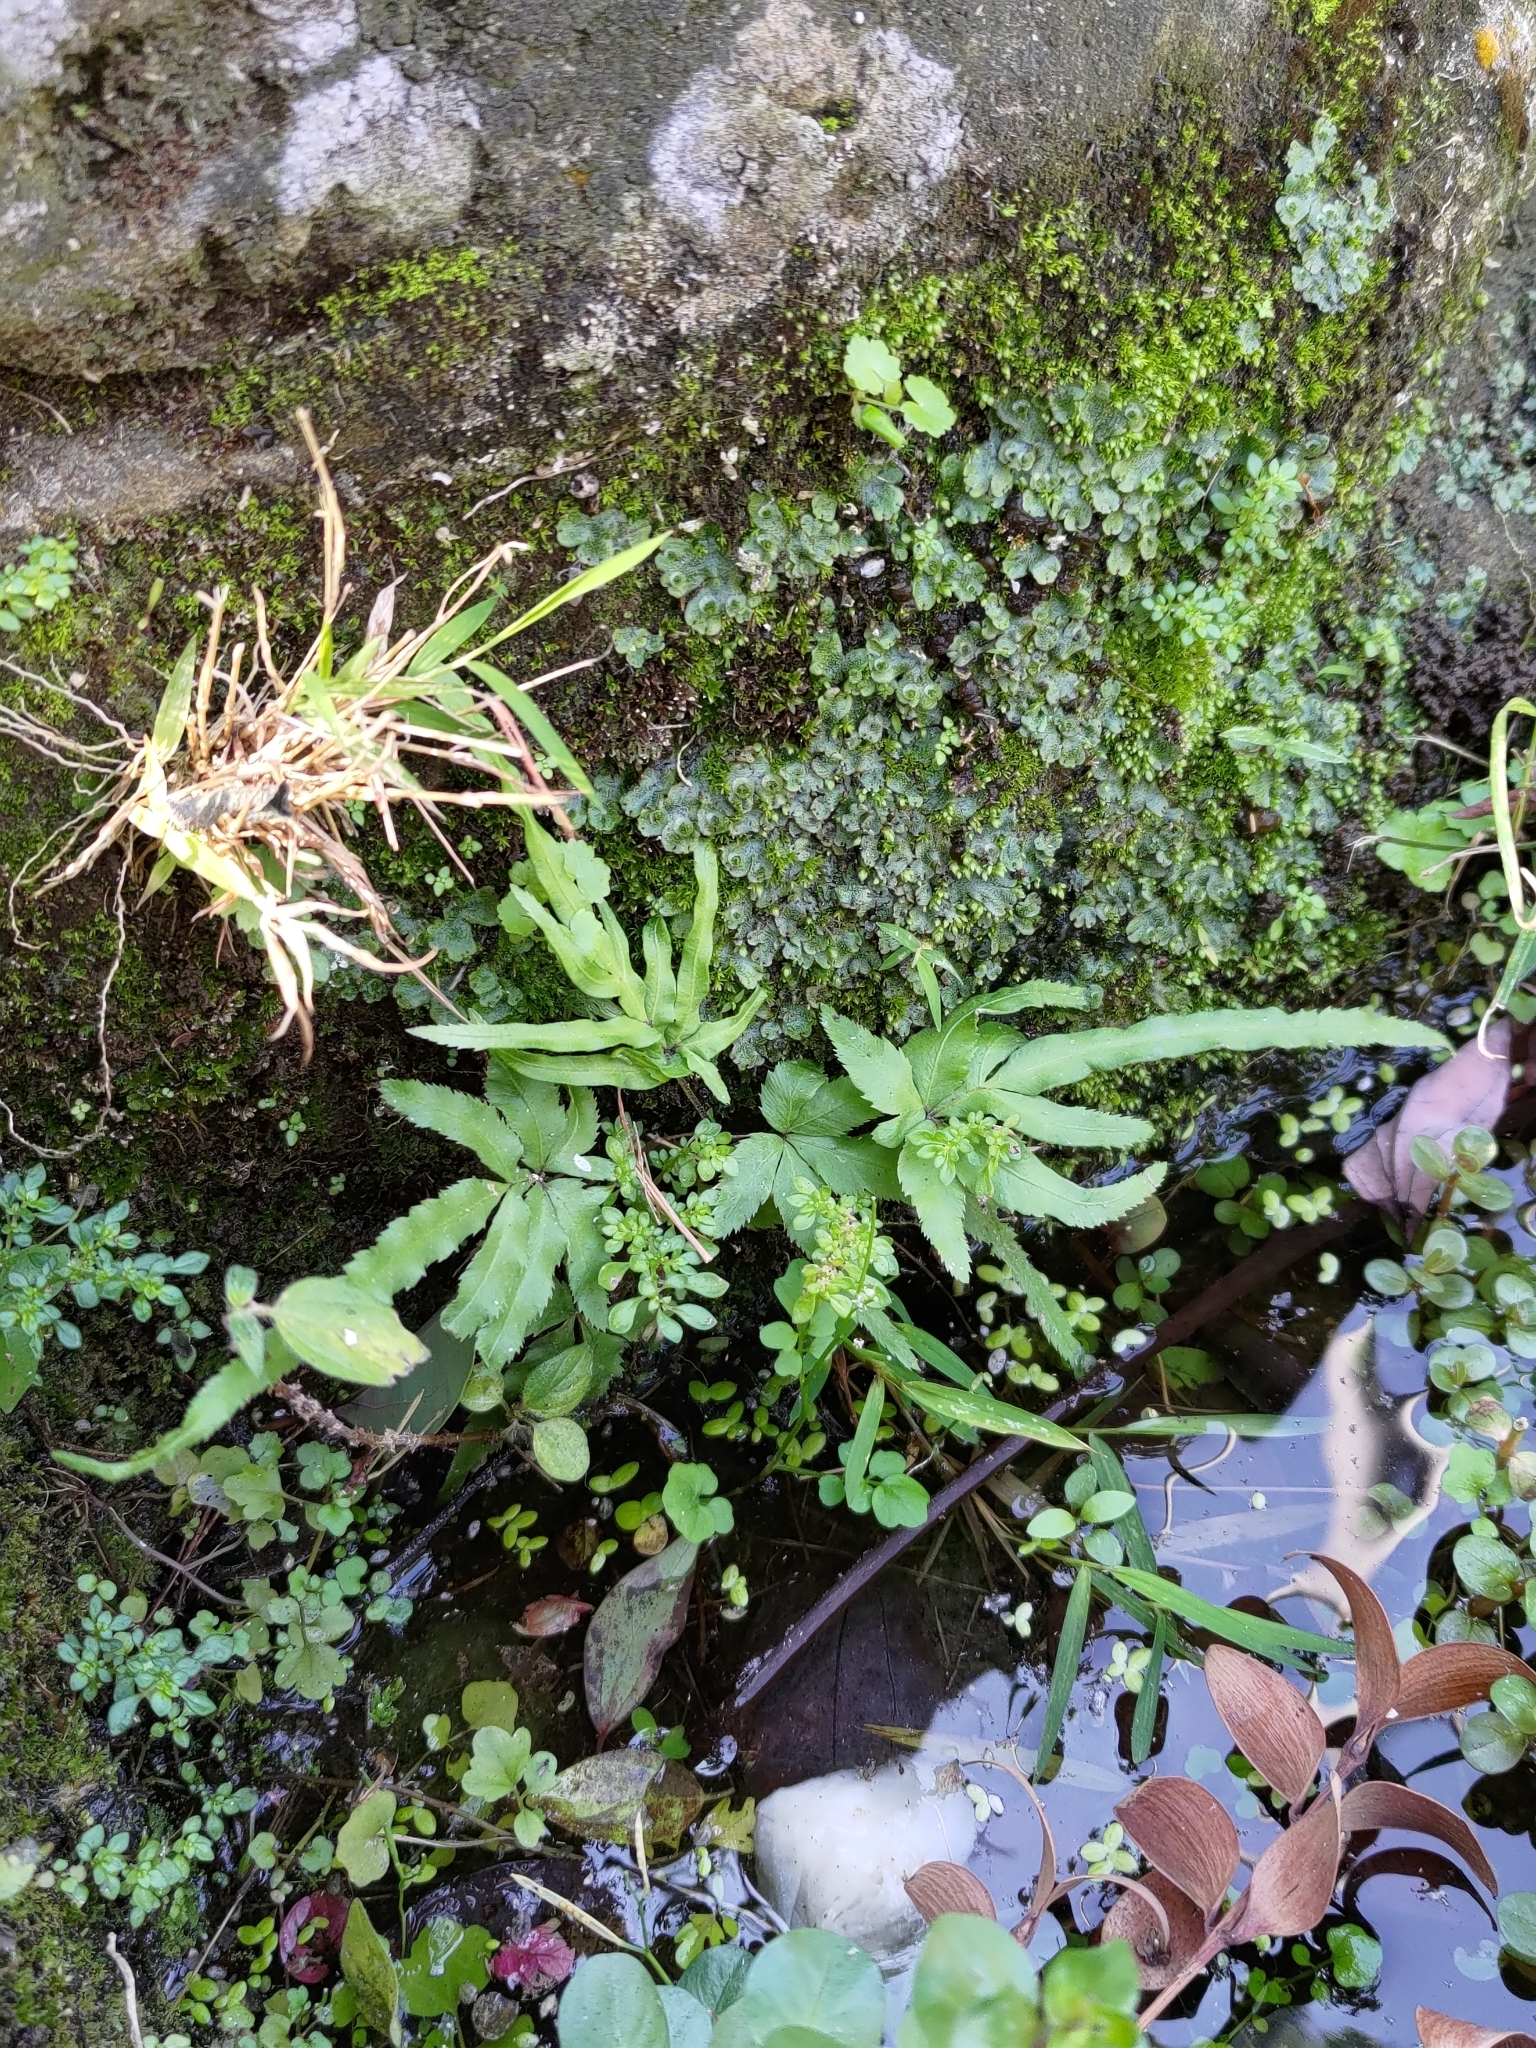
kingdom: Plantae
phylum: Tracheophyta
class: Polypodiopsida
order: Polypodiales
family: Pteridaceae
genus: Pteris
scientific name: Pteris multifida
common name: Spider brake
